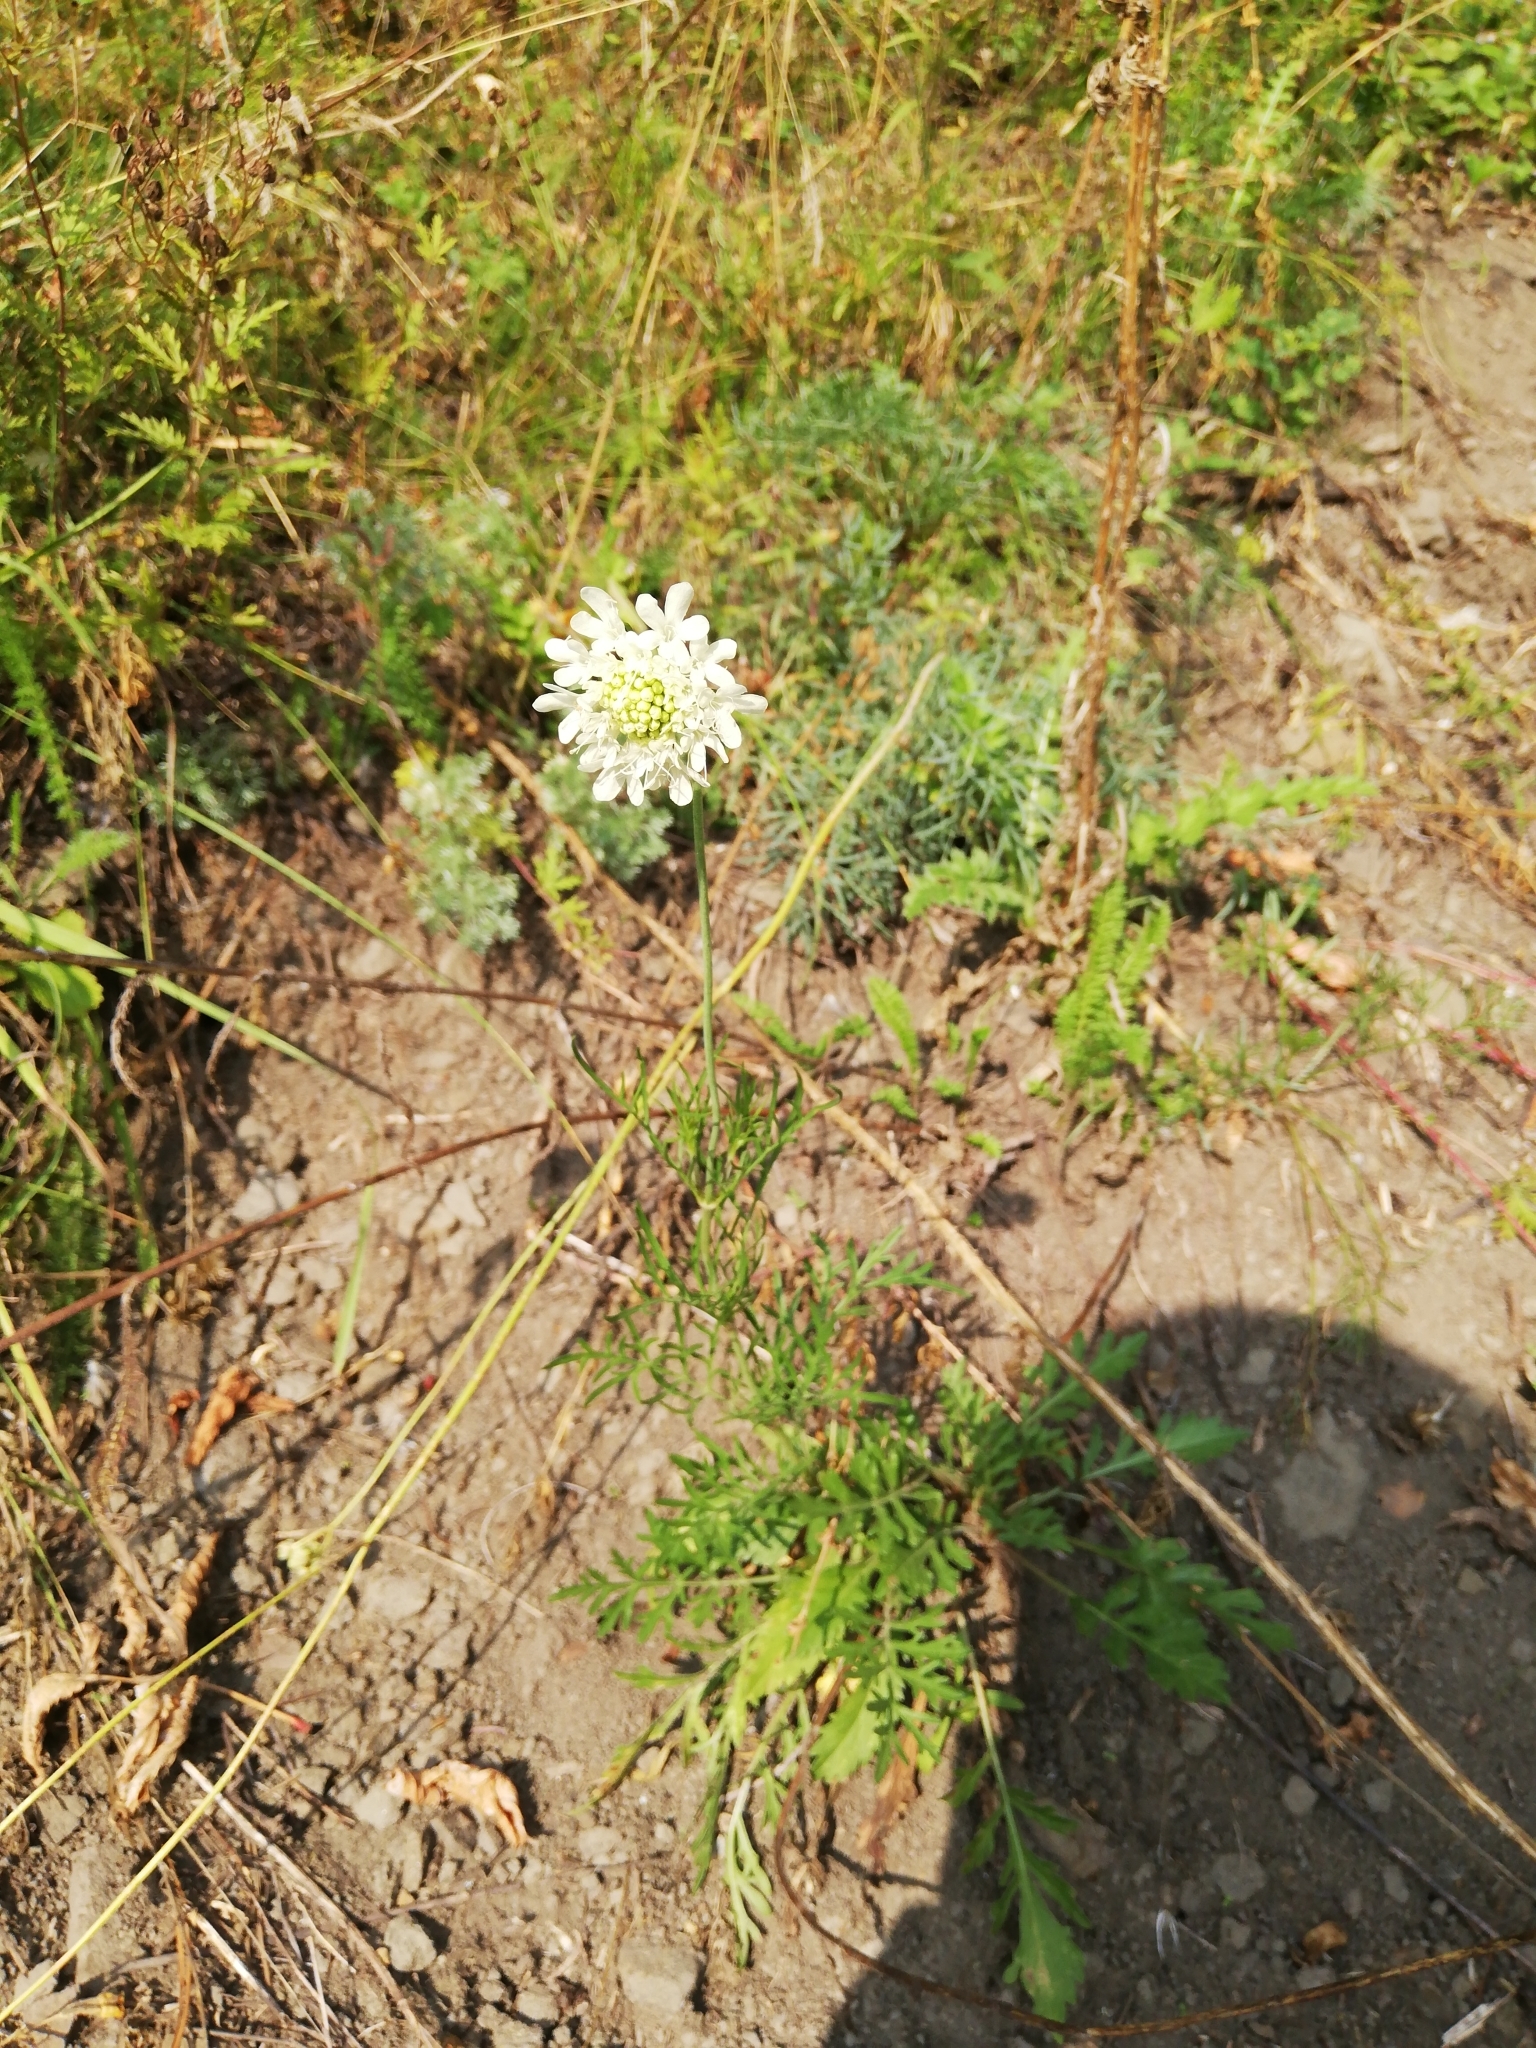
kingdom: Plantae
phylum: Tracheophyta
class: Magnoliopsida
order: Dipsacales
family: Caprifoliaceae
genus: Scabiosa
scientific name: Scabiosa ochroleuca
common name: Cream pincushions
